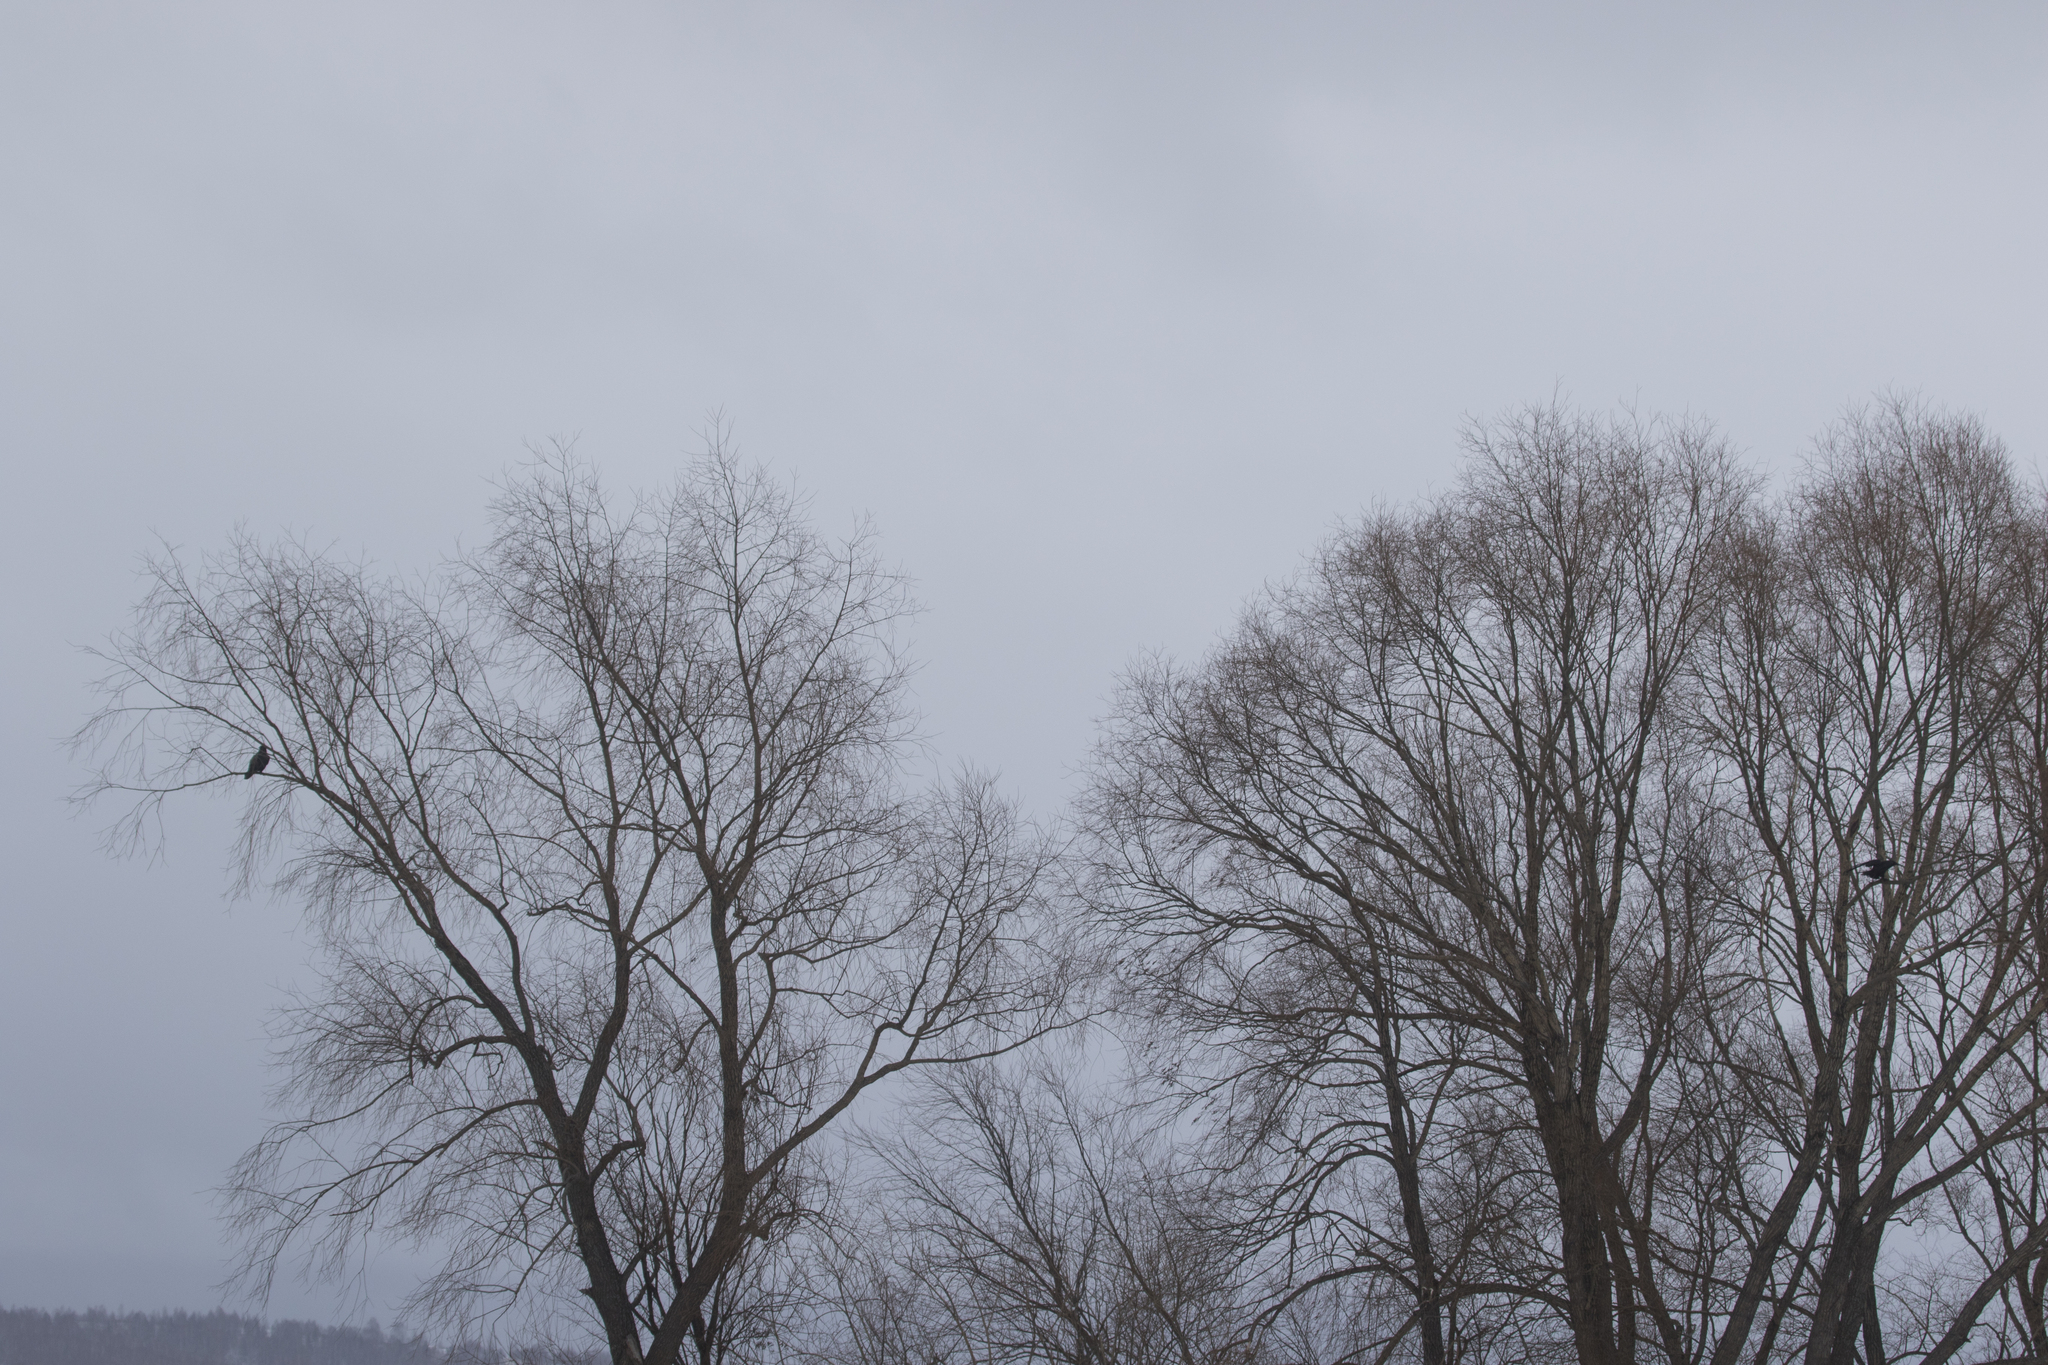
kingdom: Animalia
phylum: Chordata
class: Aves
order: Passeriformes
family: Corvidae
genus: Corvus
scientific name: Corvus corax
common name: Common raven
